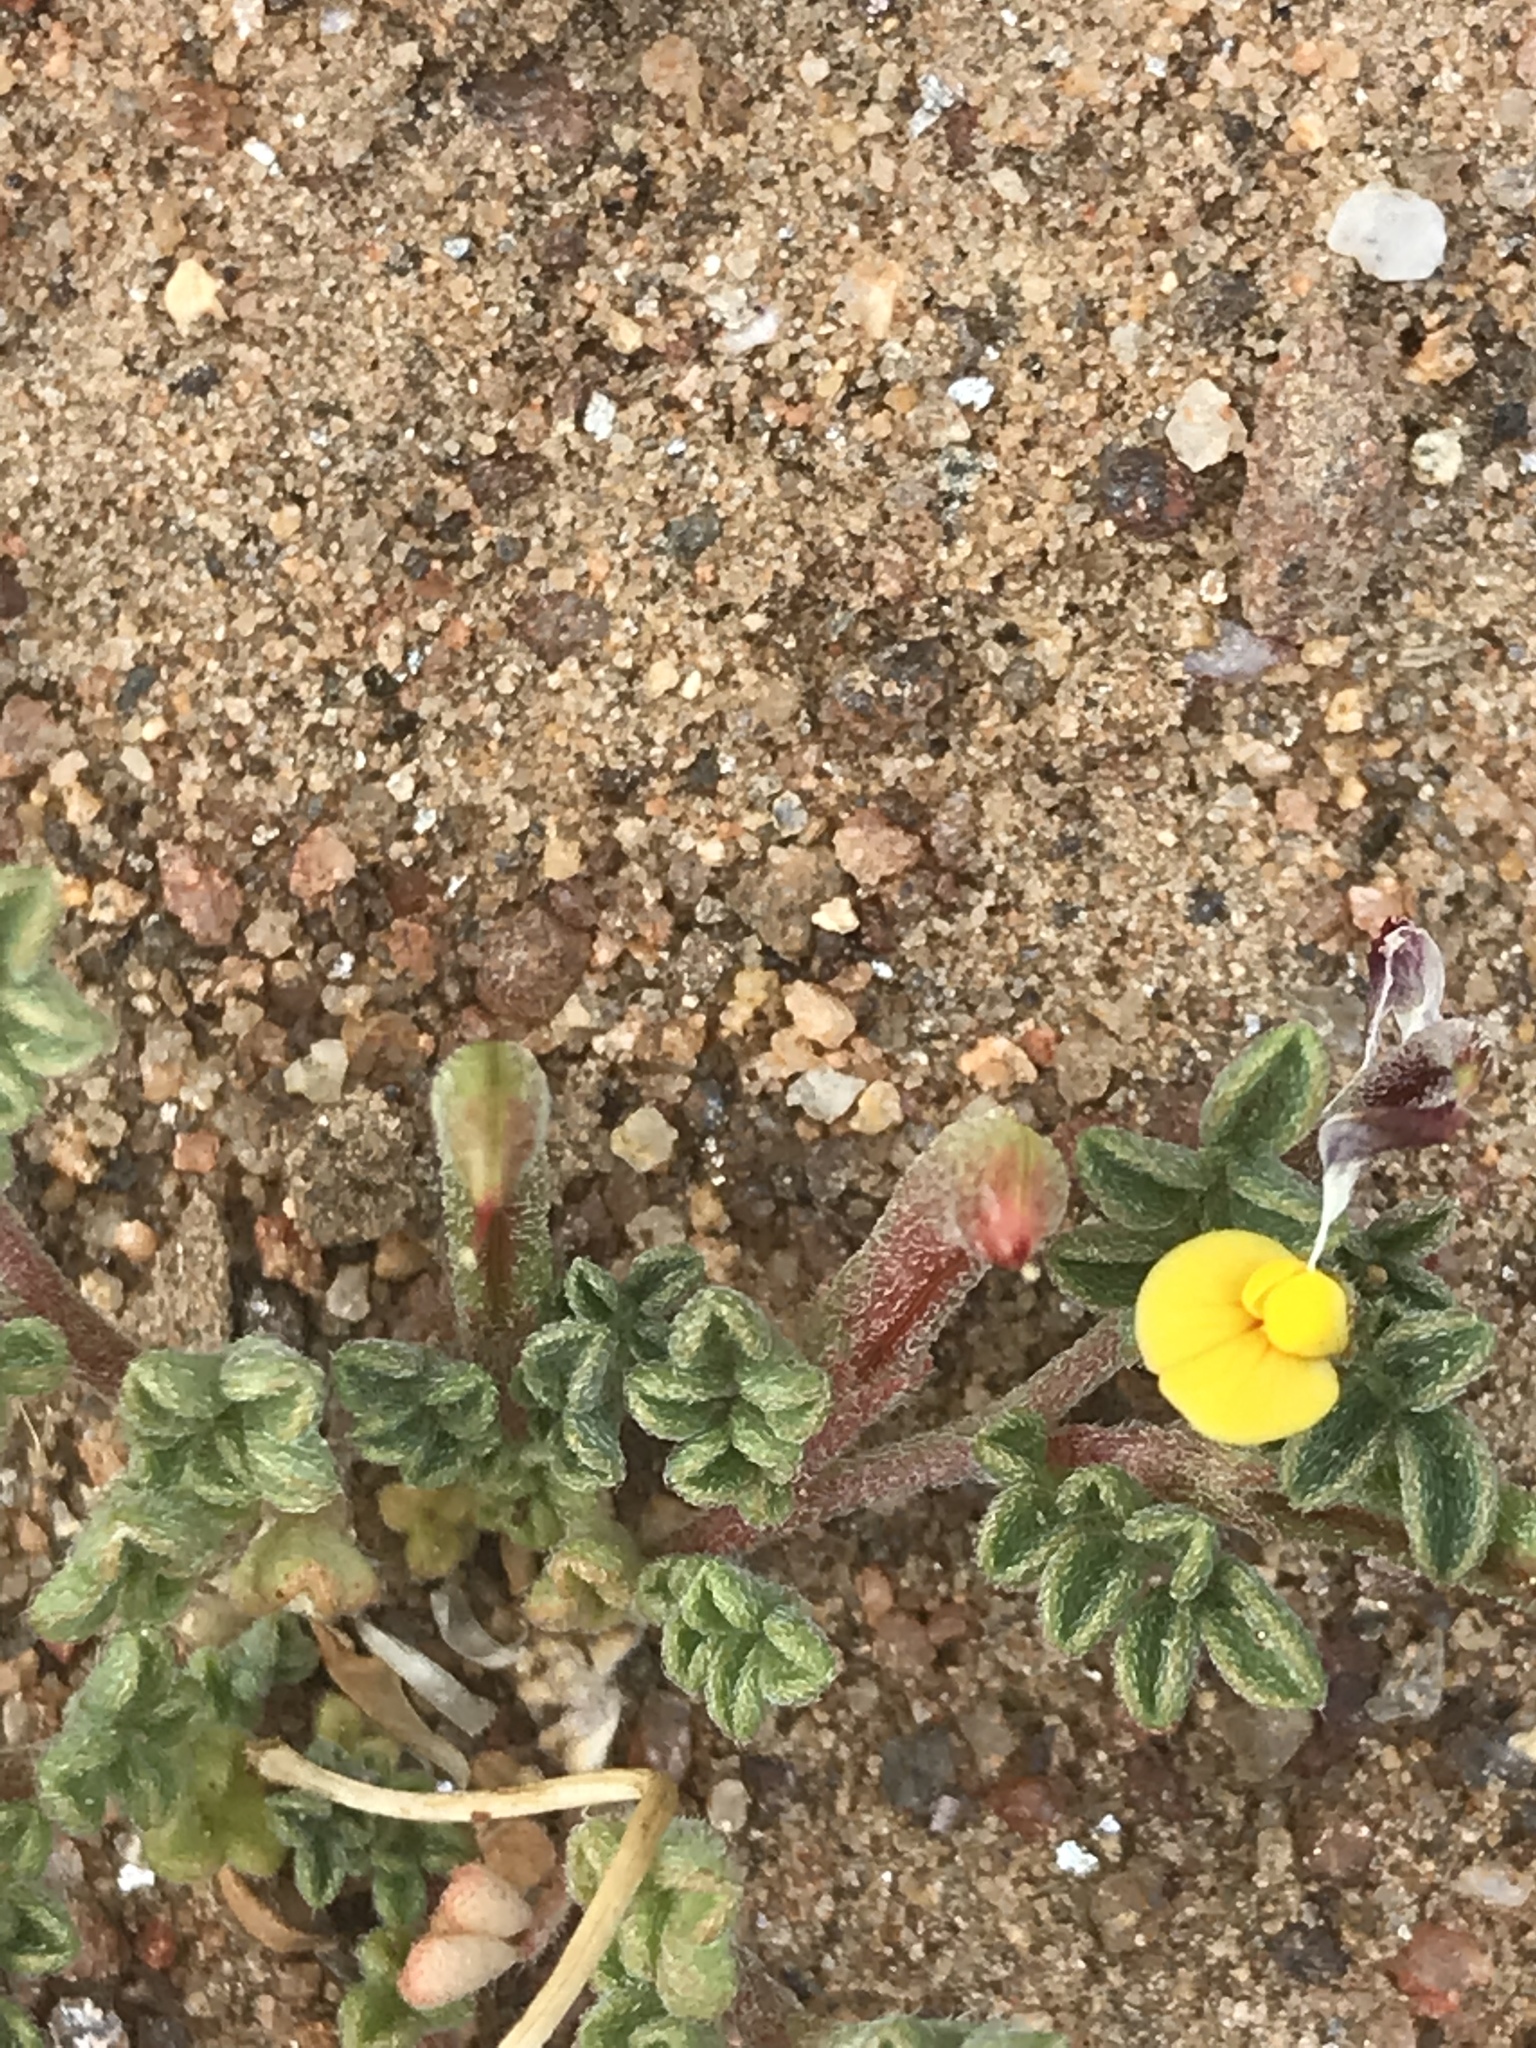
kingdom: Plantae
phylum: Tracheophyta
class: Magnoliopsida
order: Fabales
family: Fabaceae
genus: Acmispon
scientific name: Acmispon strigosus
